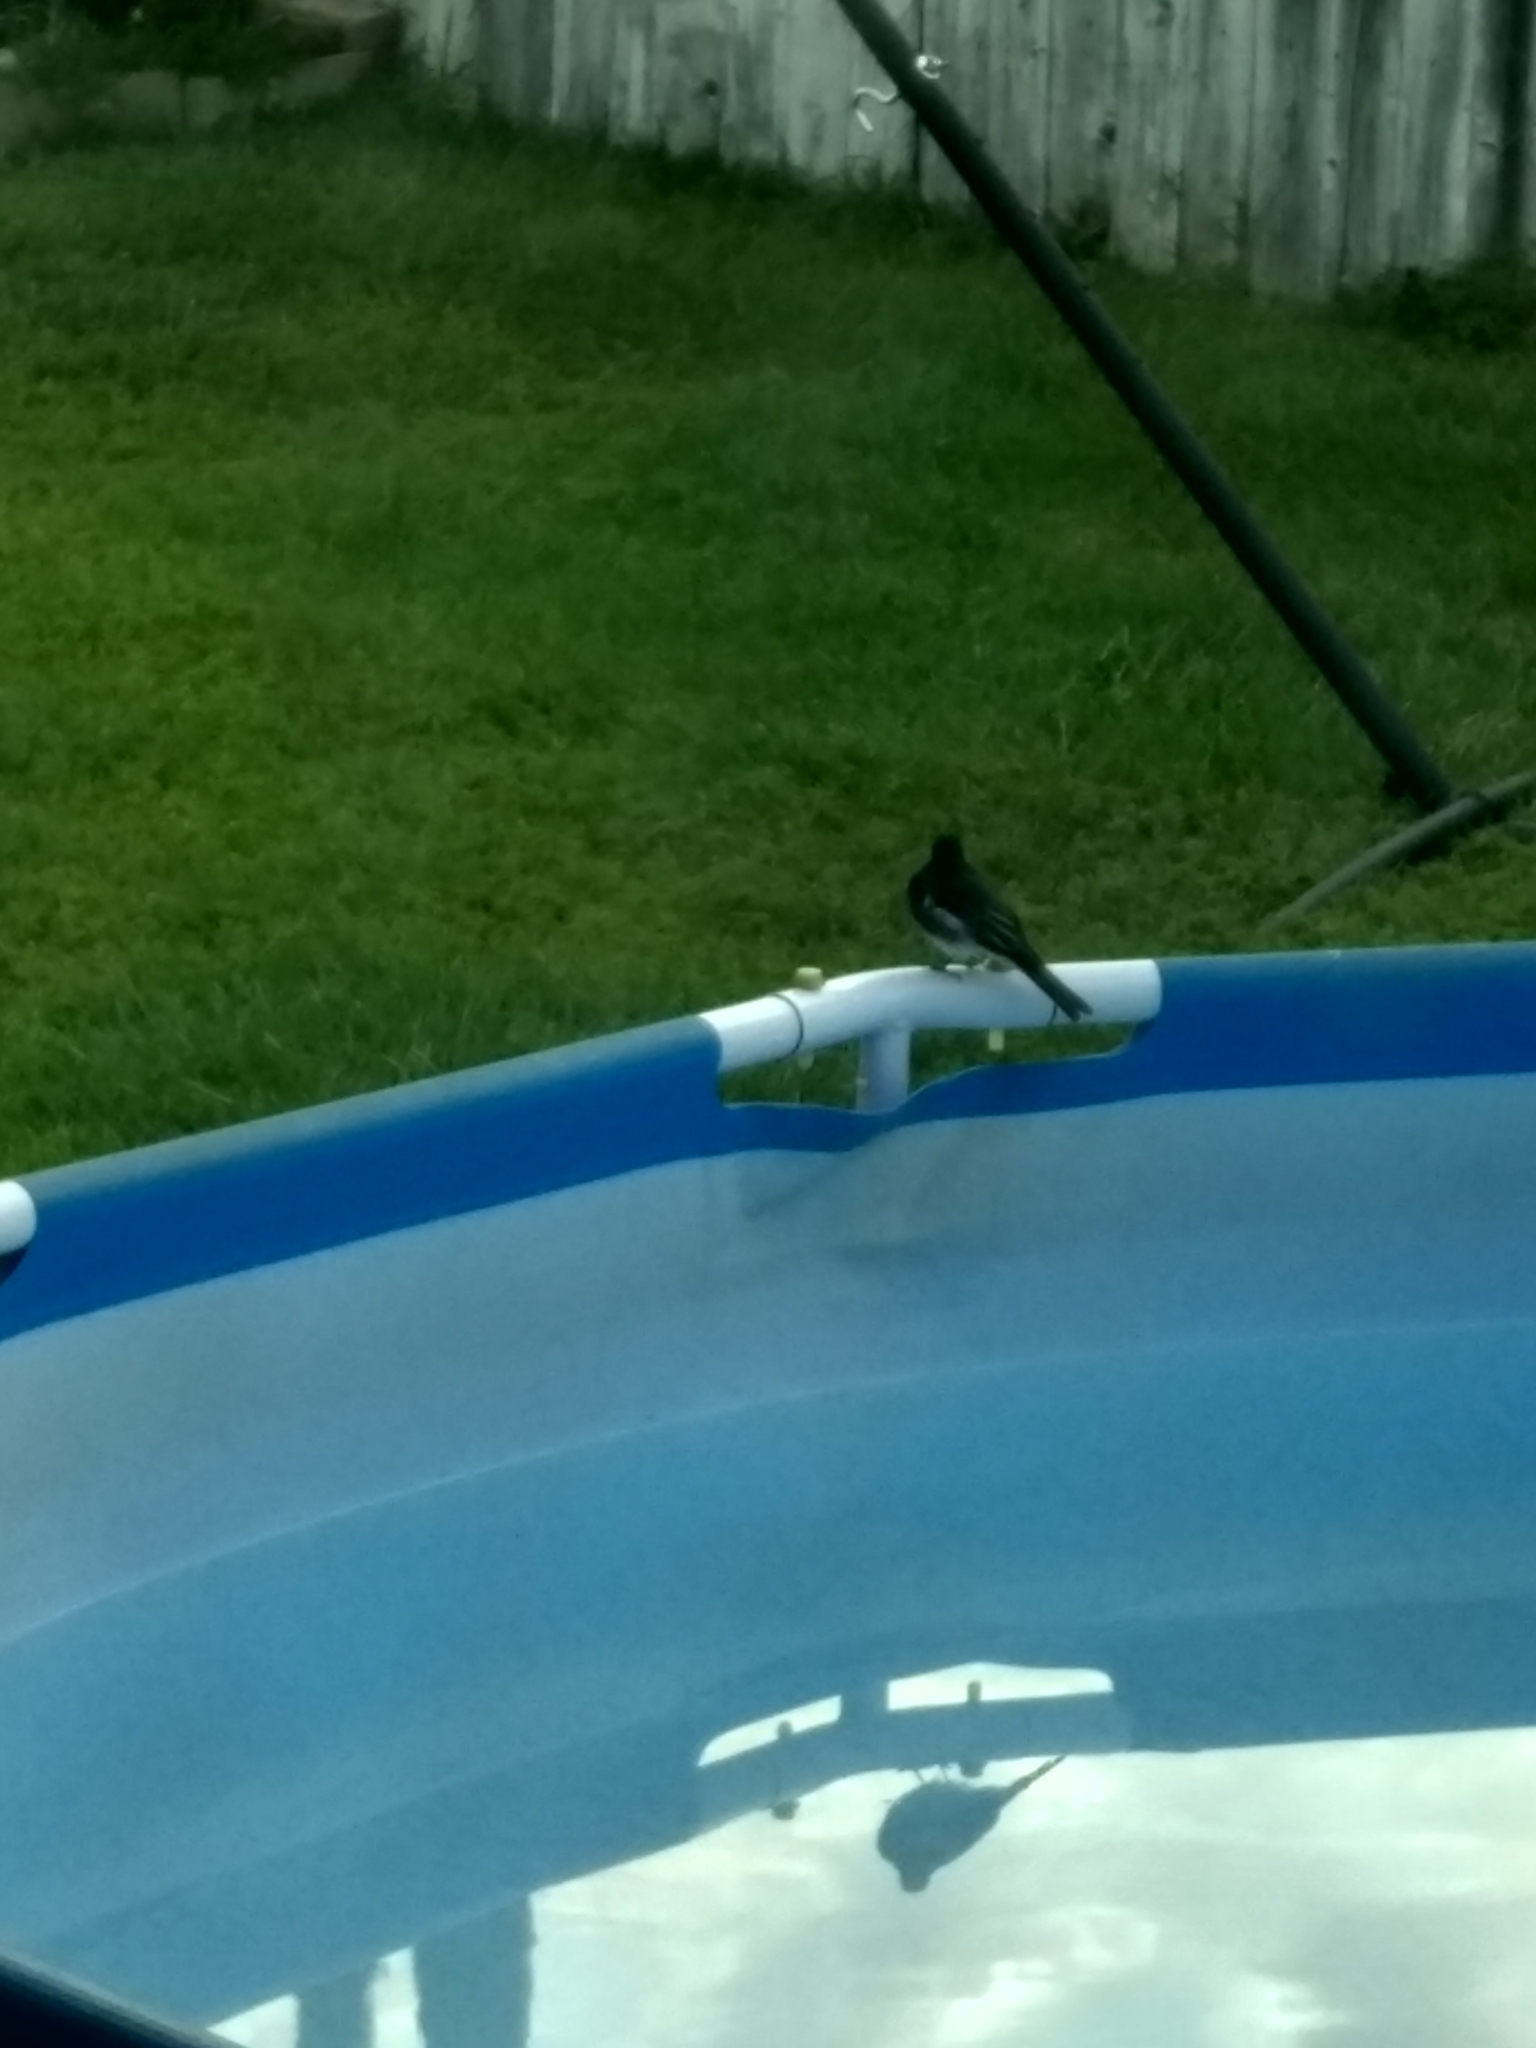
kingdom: Animalia
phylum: Chordata
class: Aves
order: Passeriformes
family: Tyrannidae
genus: Sayornis
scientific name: Sayornis nigricans
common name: Black phoebe
